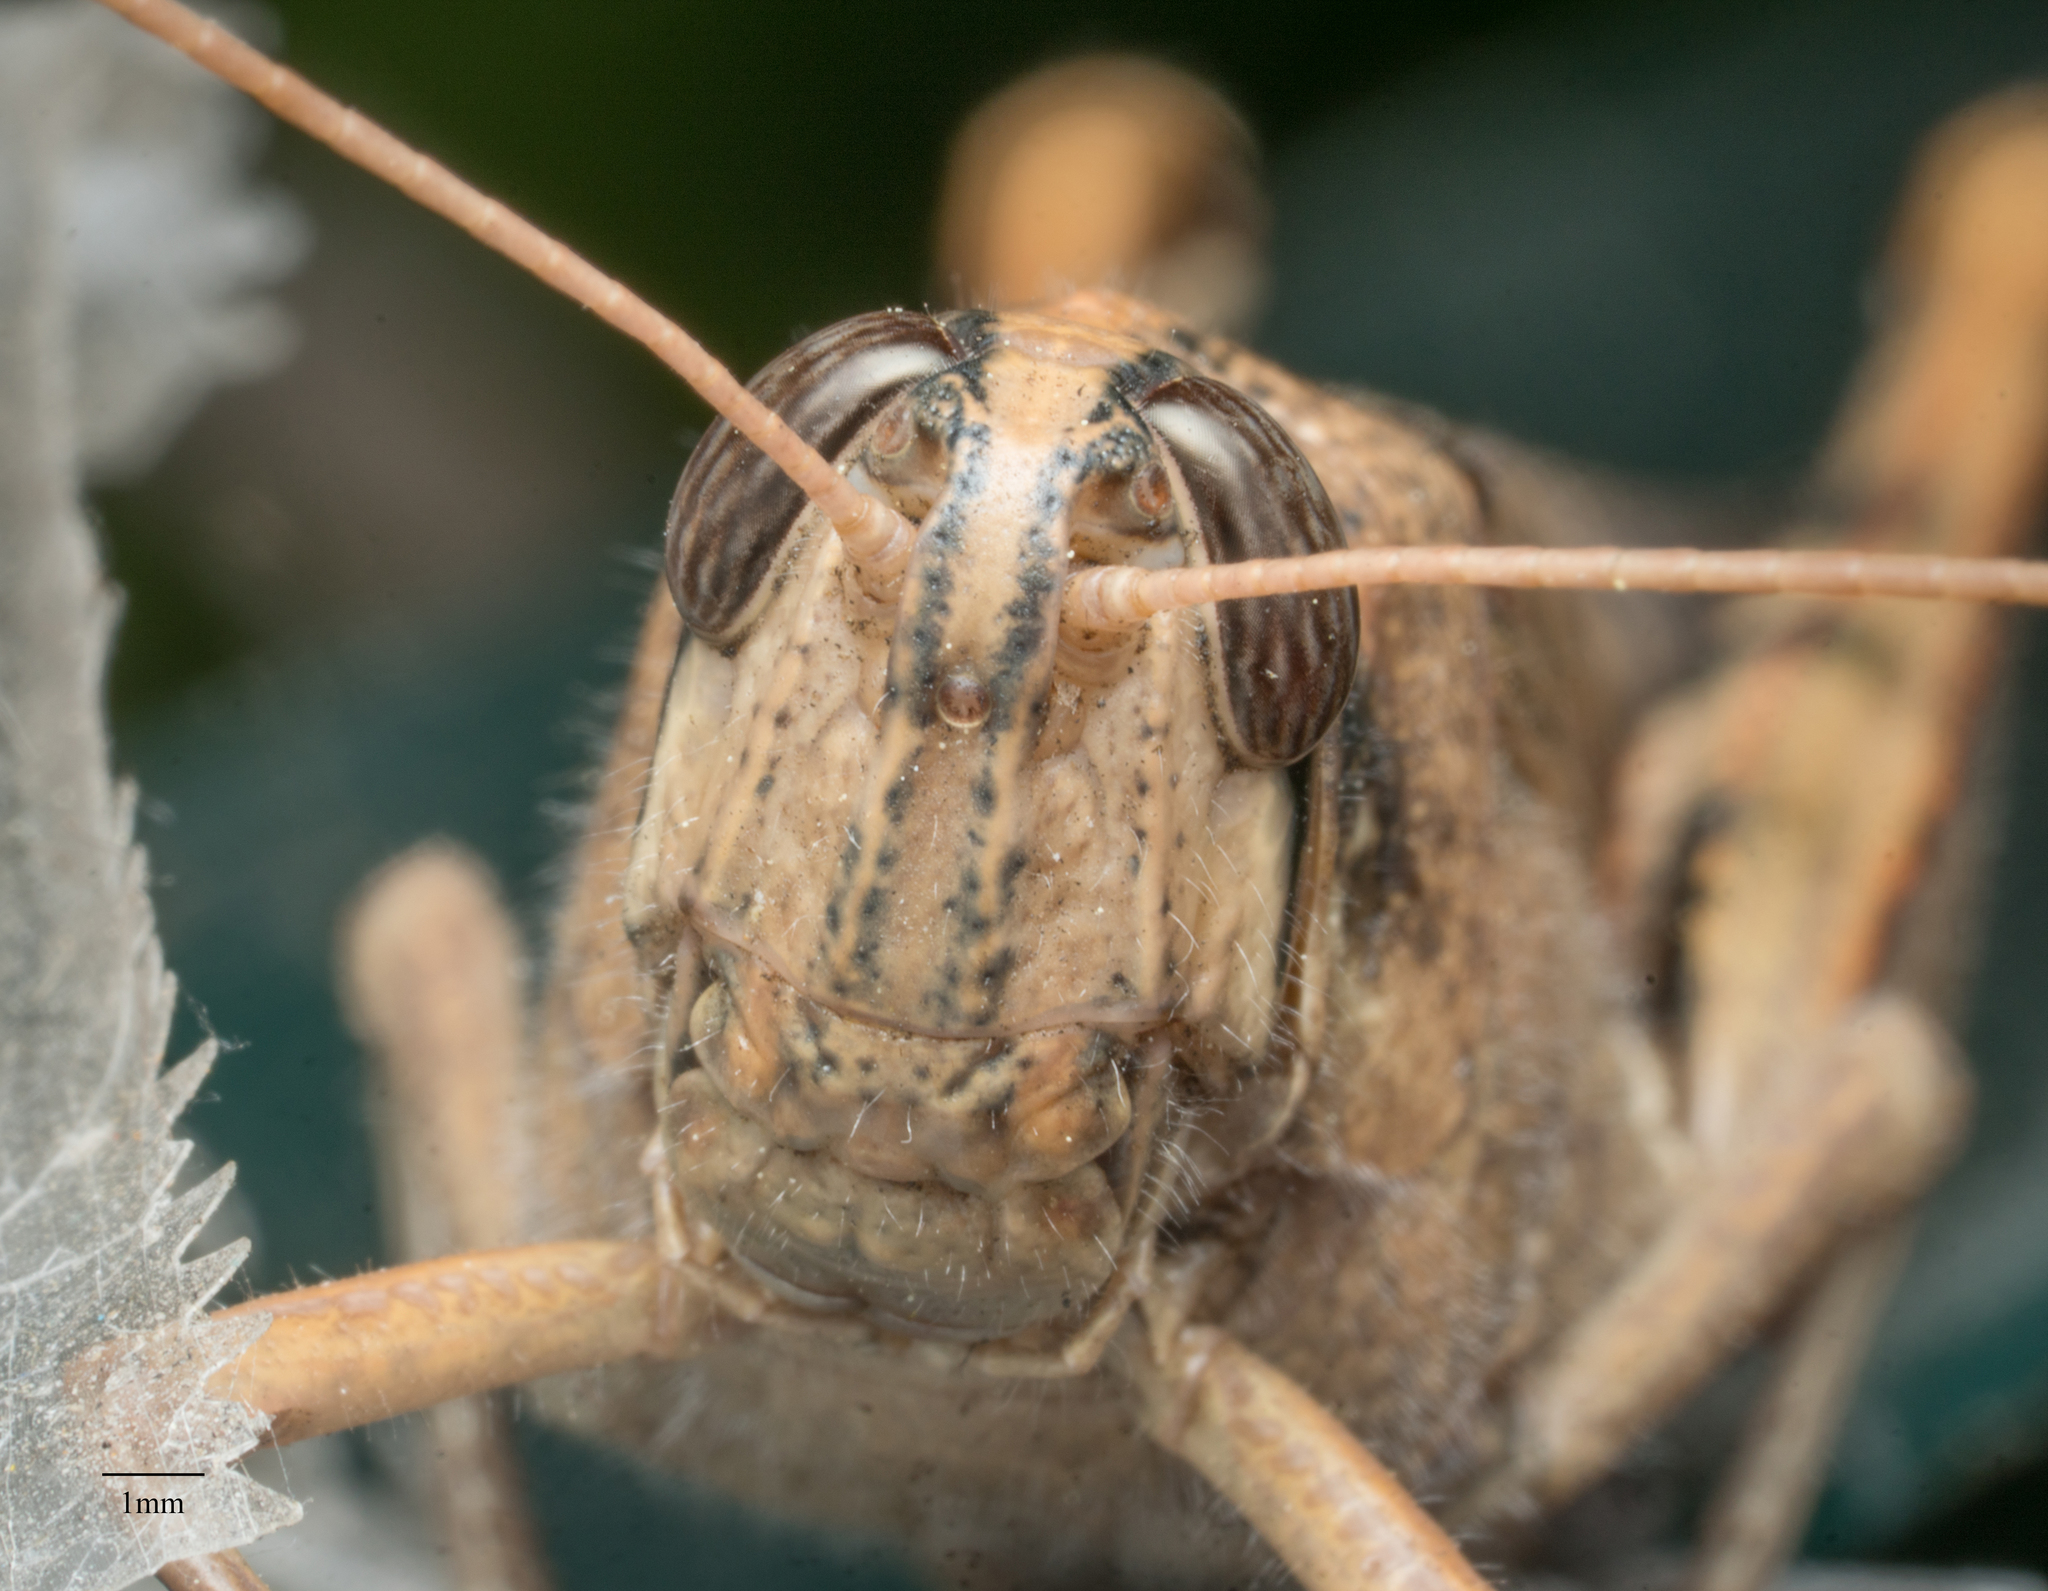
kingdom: Animalia
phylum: Arthropoda
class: Insecta
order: Orthoptera
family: Acrididae
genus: Schistocerca
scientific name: Schistocerca nitens
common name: Vagrant grasshopper
